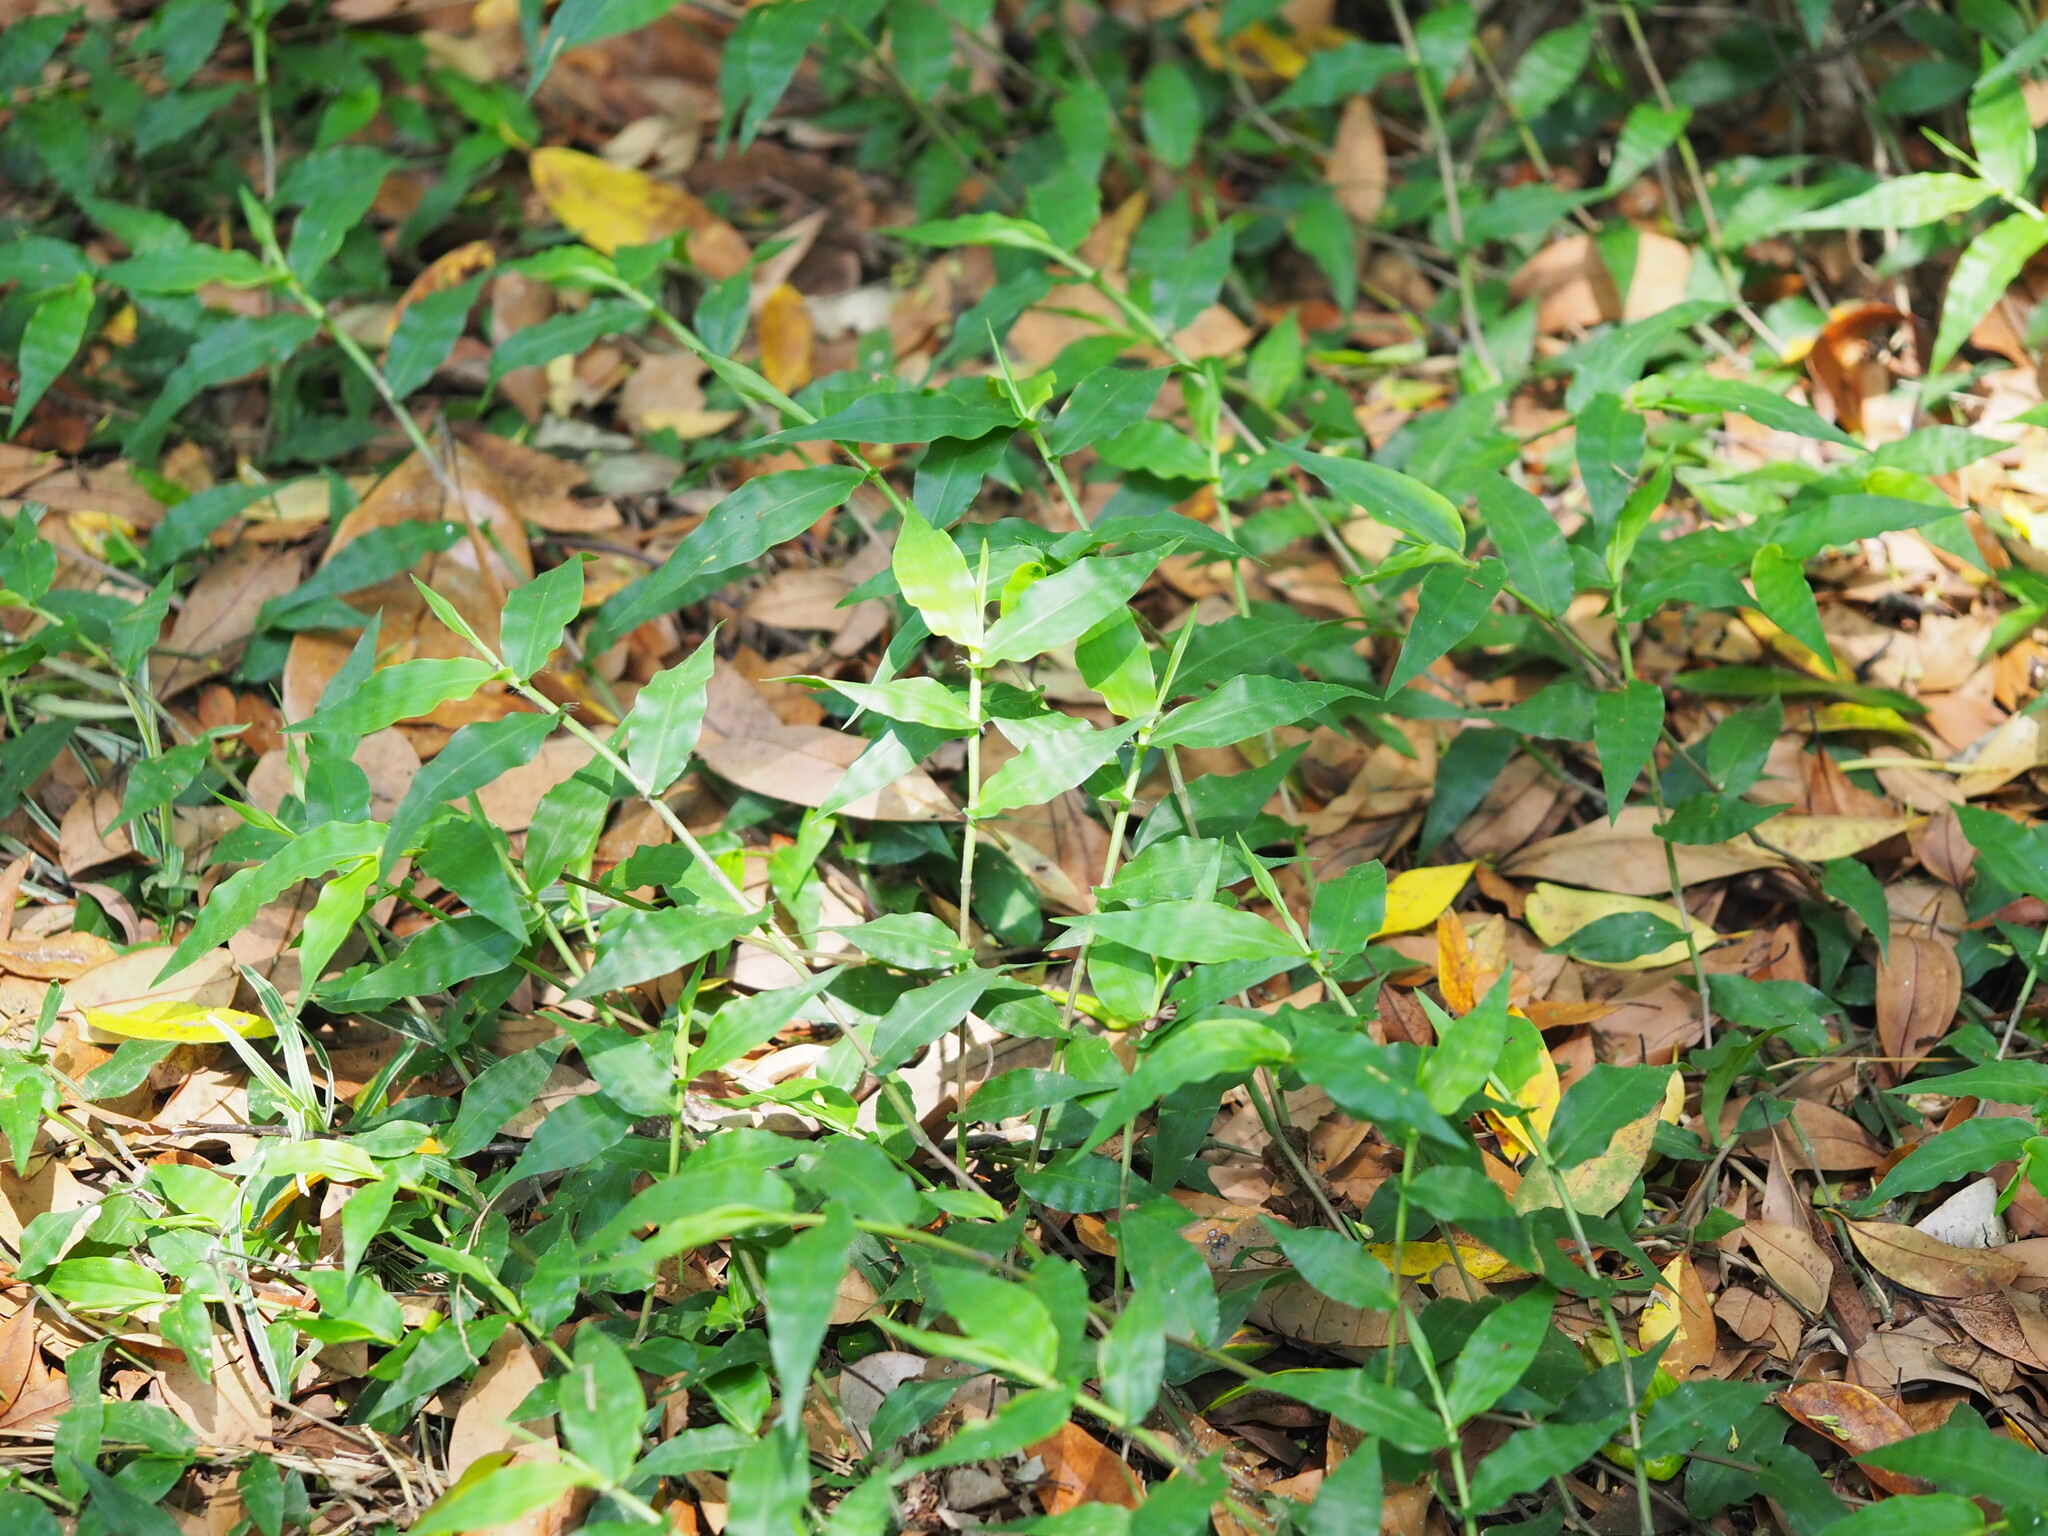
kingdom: Plantae
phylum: Tracheophyta
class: Liliopsida
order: Poales
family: Poaceae
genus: Oplismenus
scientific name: Oplismenus compositus
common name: Running mountain grass
